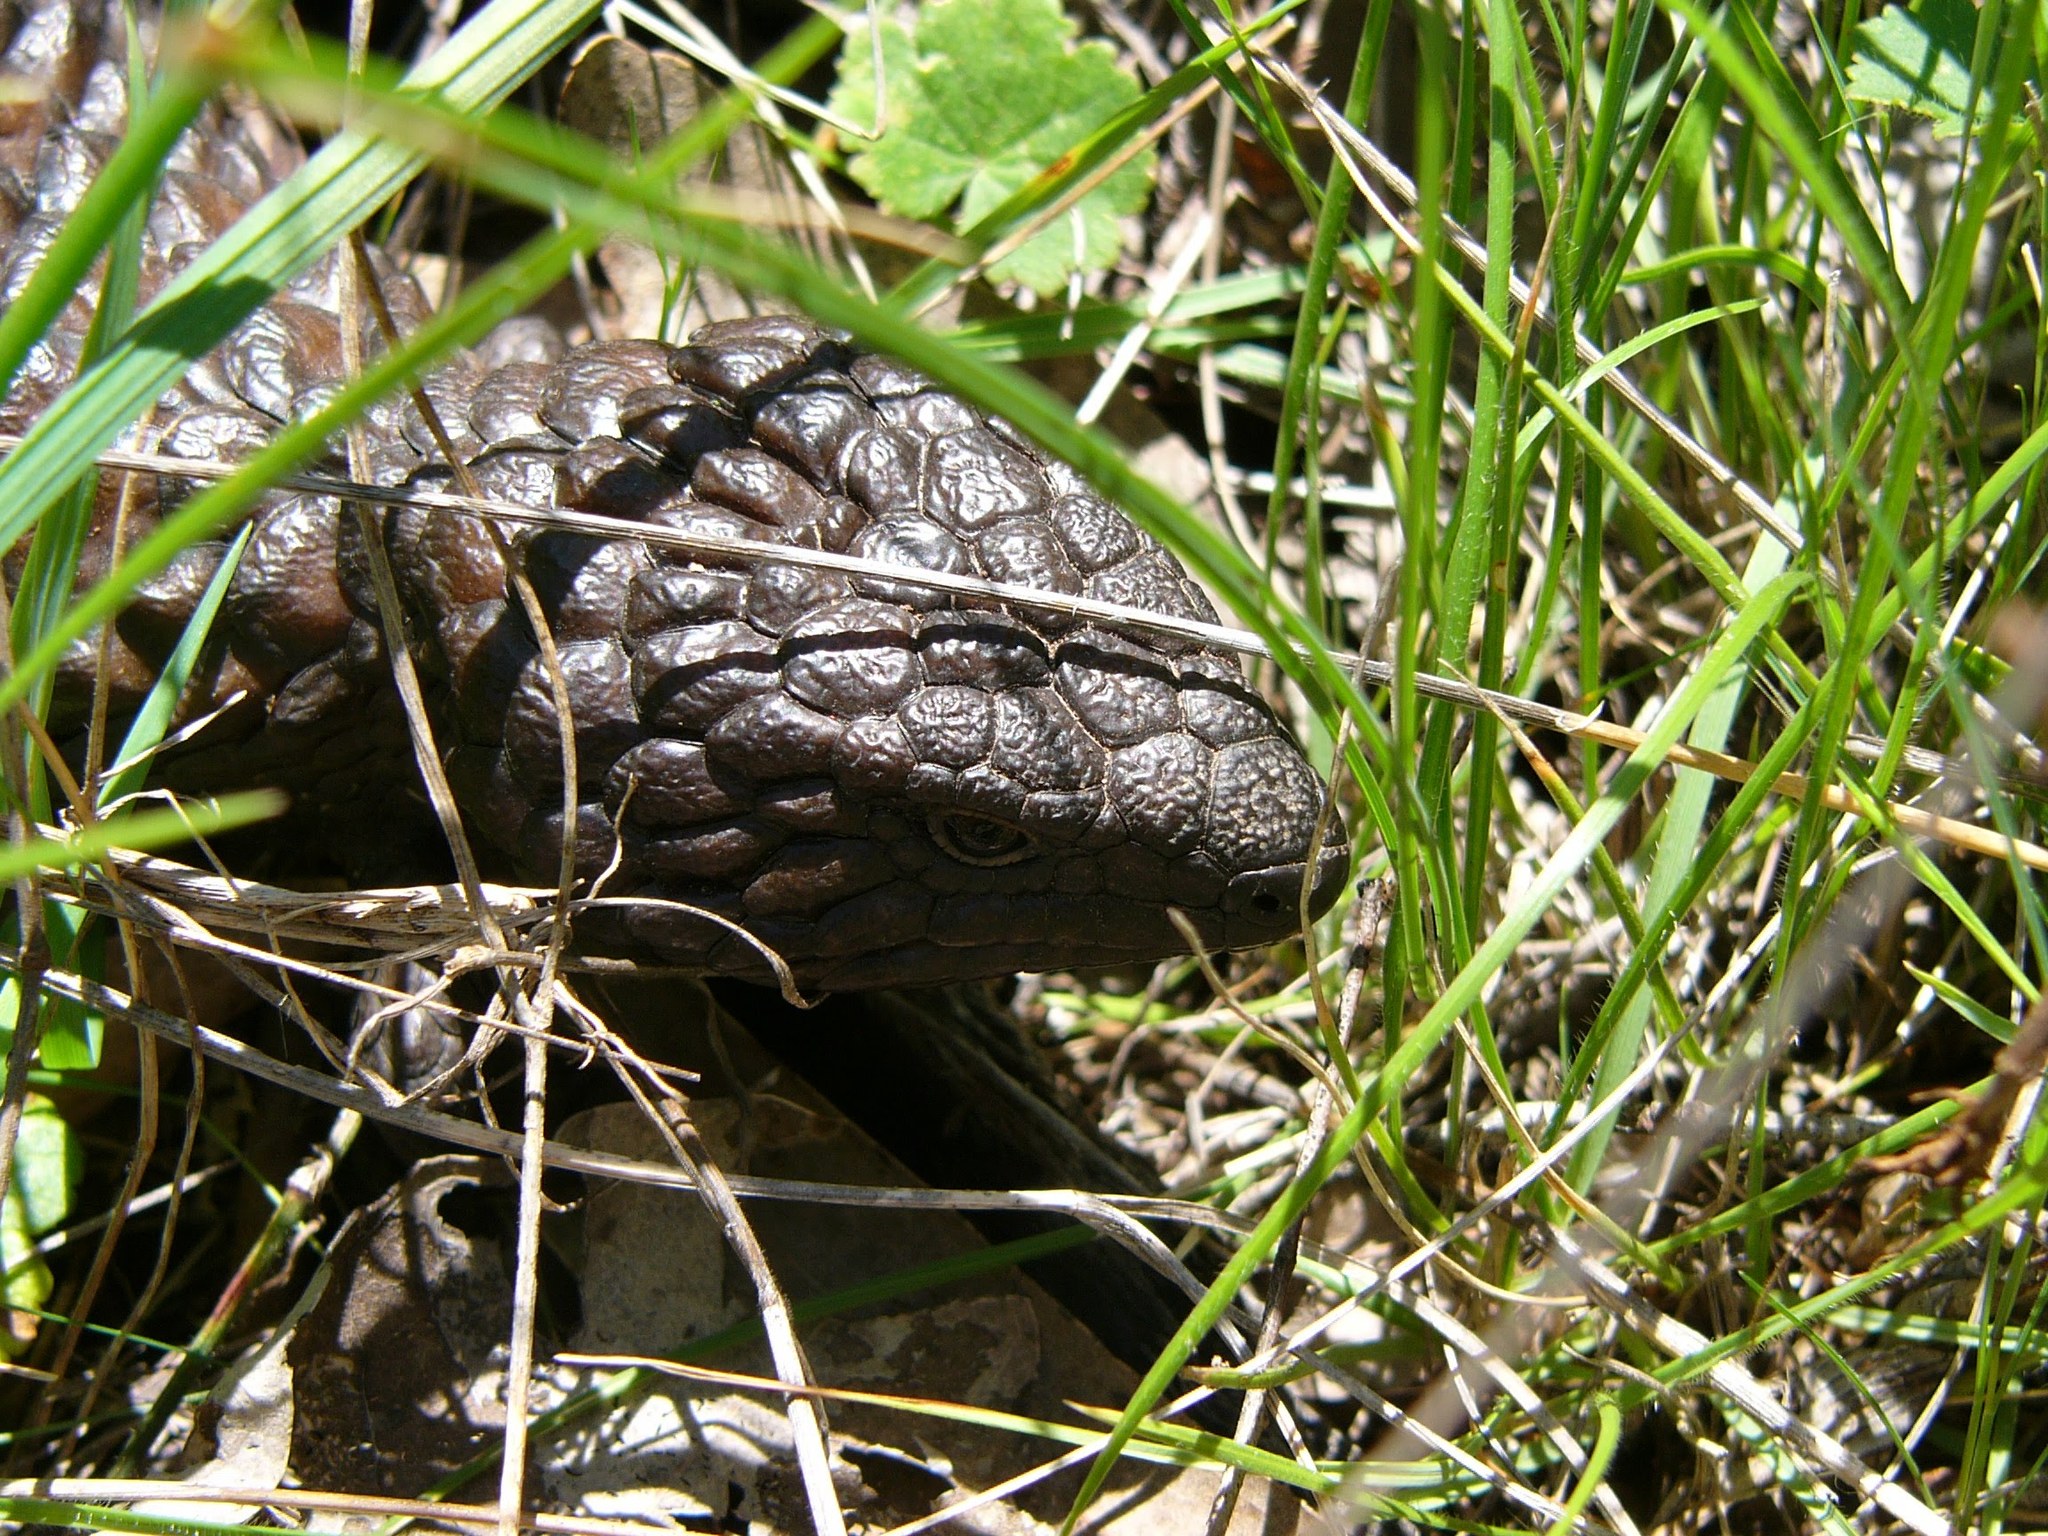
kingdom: Animalia
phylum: Chordata
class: Squamata
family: Scincidae
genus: Tiliqua
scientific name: Tiliqua rugosa
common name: Pinecone lizard
